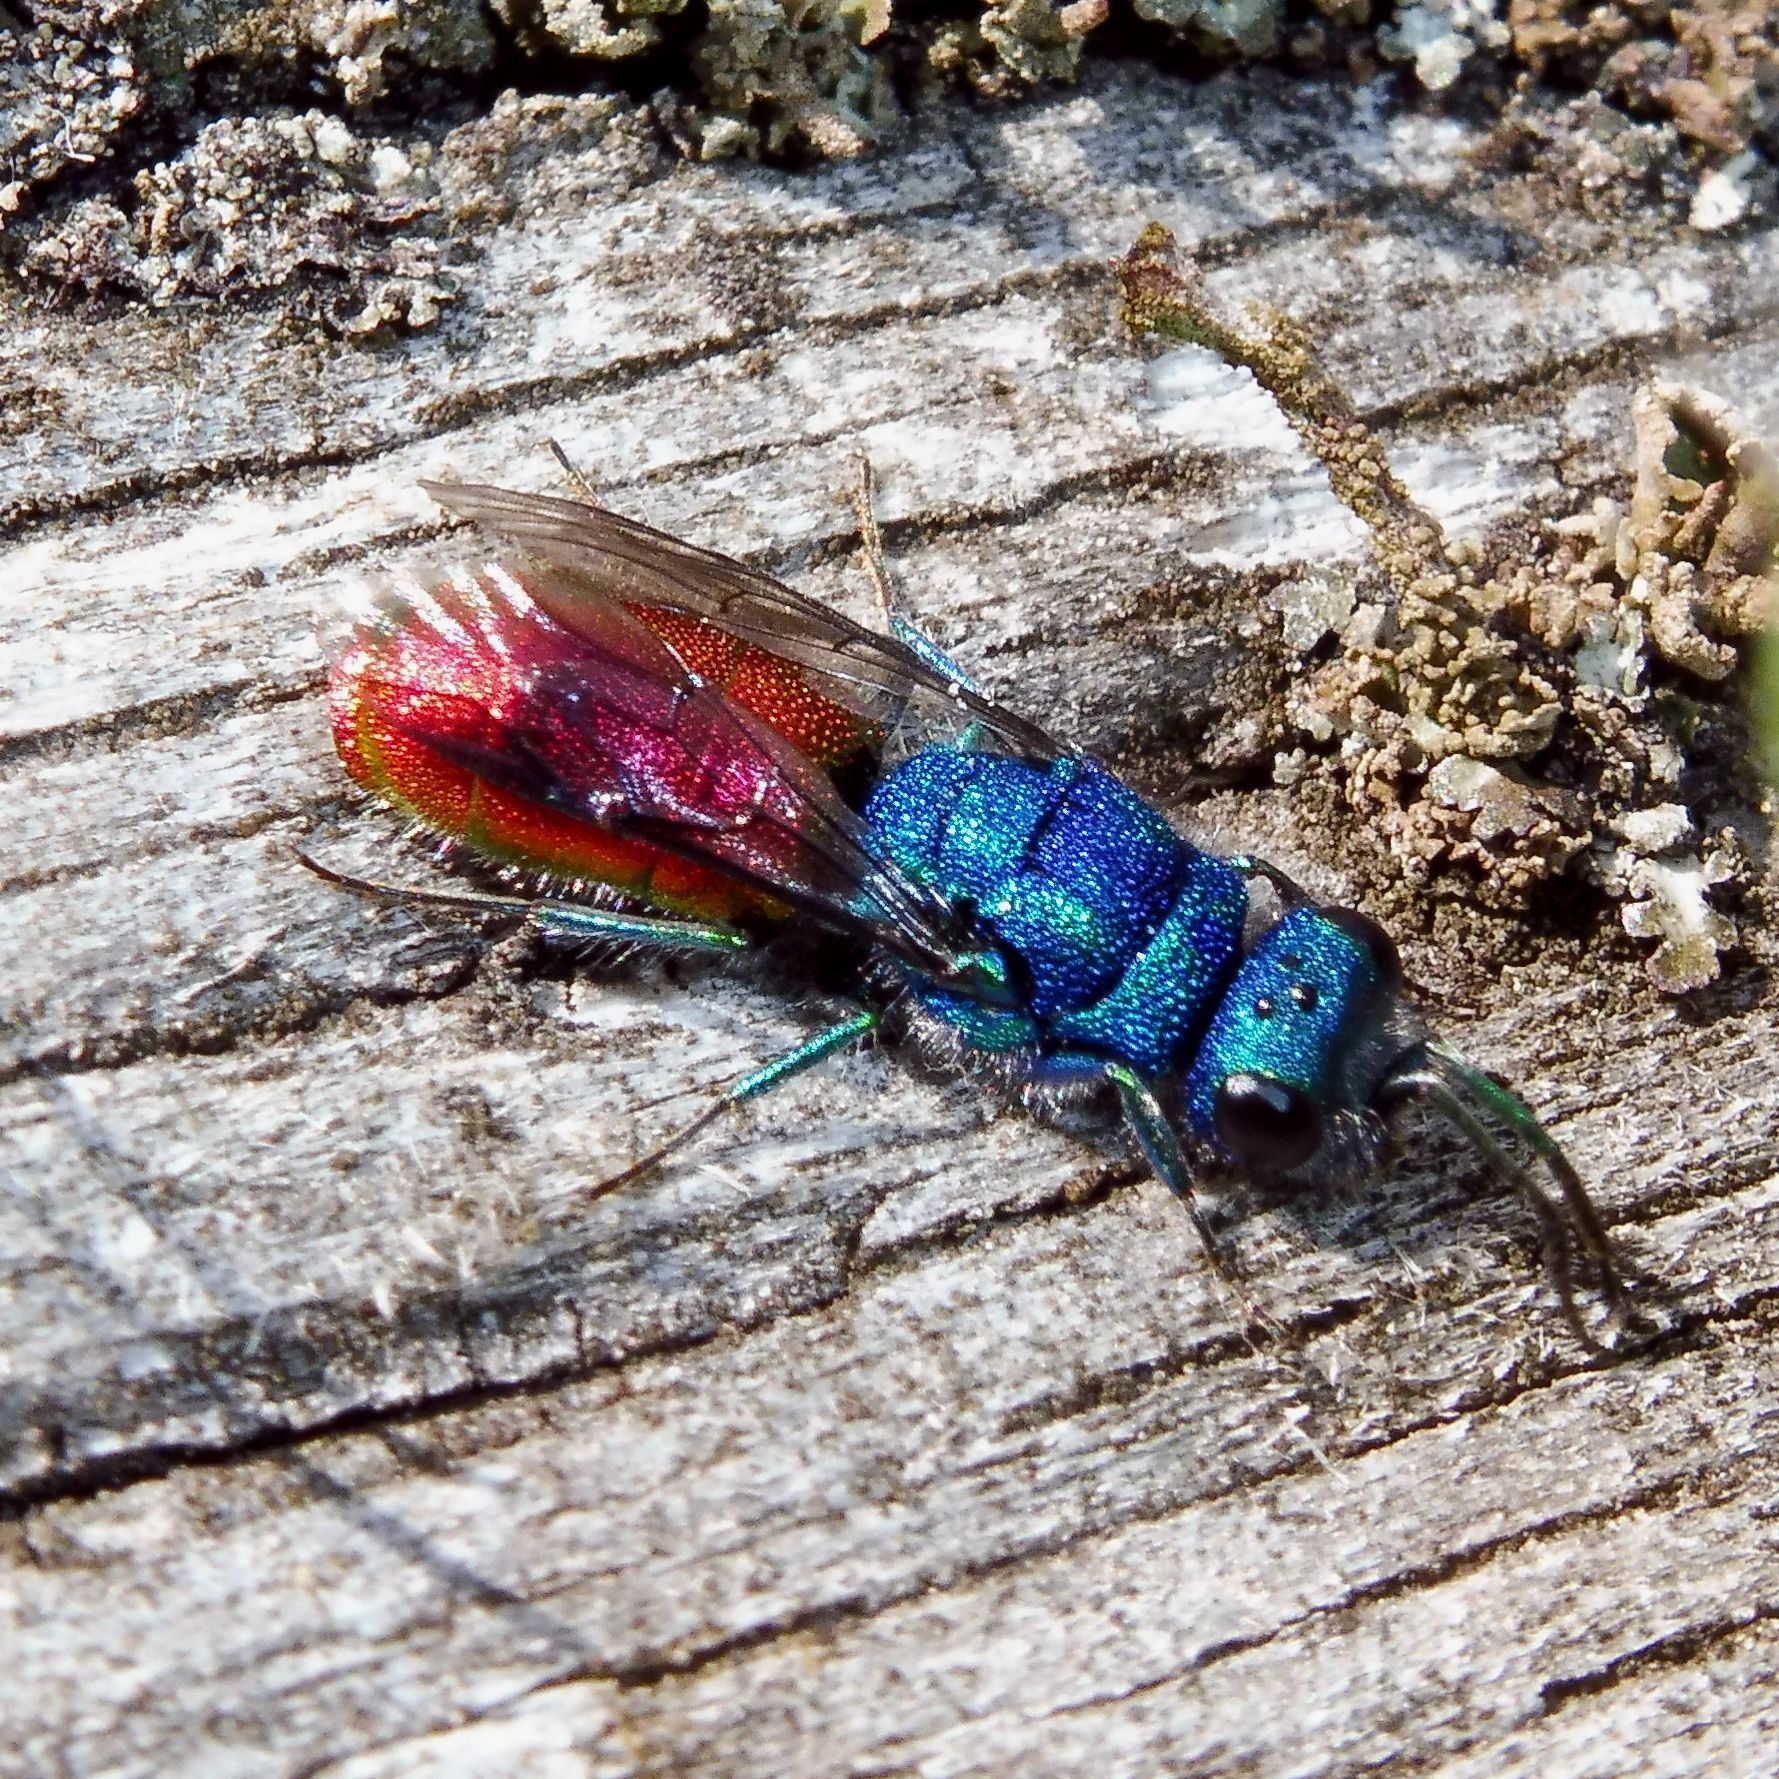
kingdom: Animalia
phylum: Arthropoda
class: Insecta
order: Hymenoptera
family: Chrysididae
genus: Chrysura
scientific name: Chrysura radians
